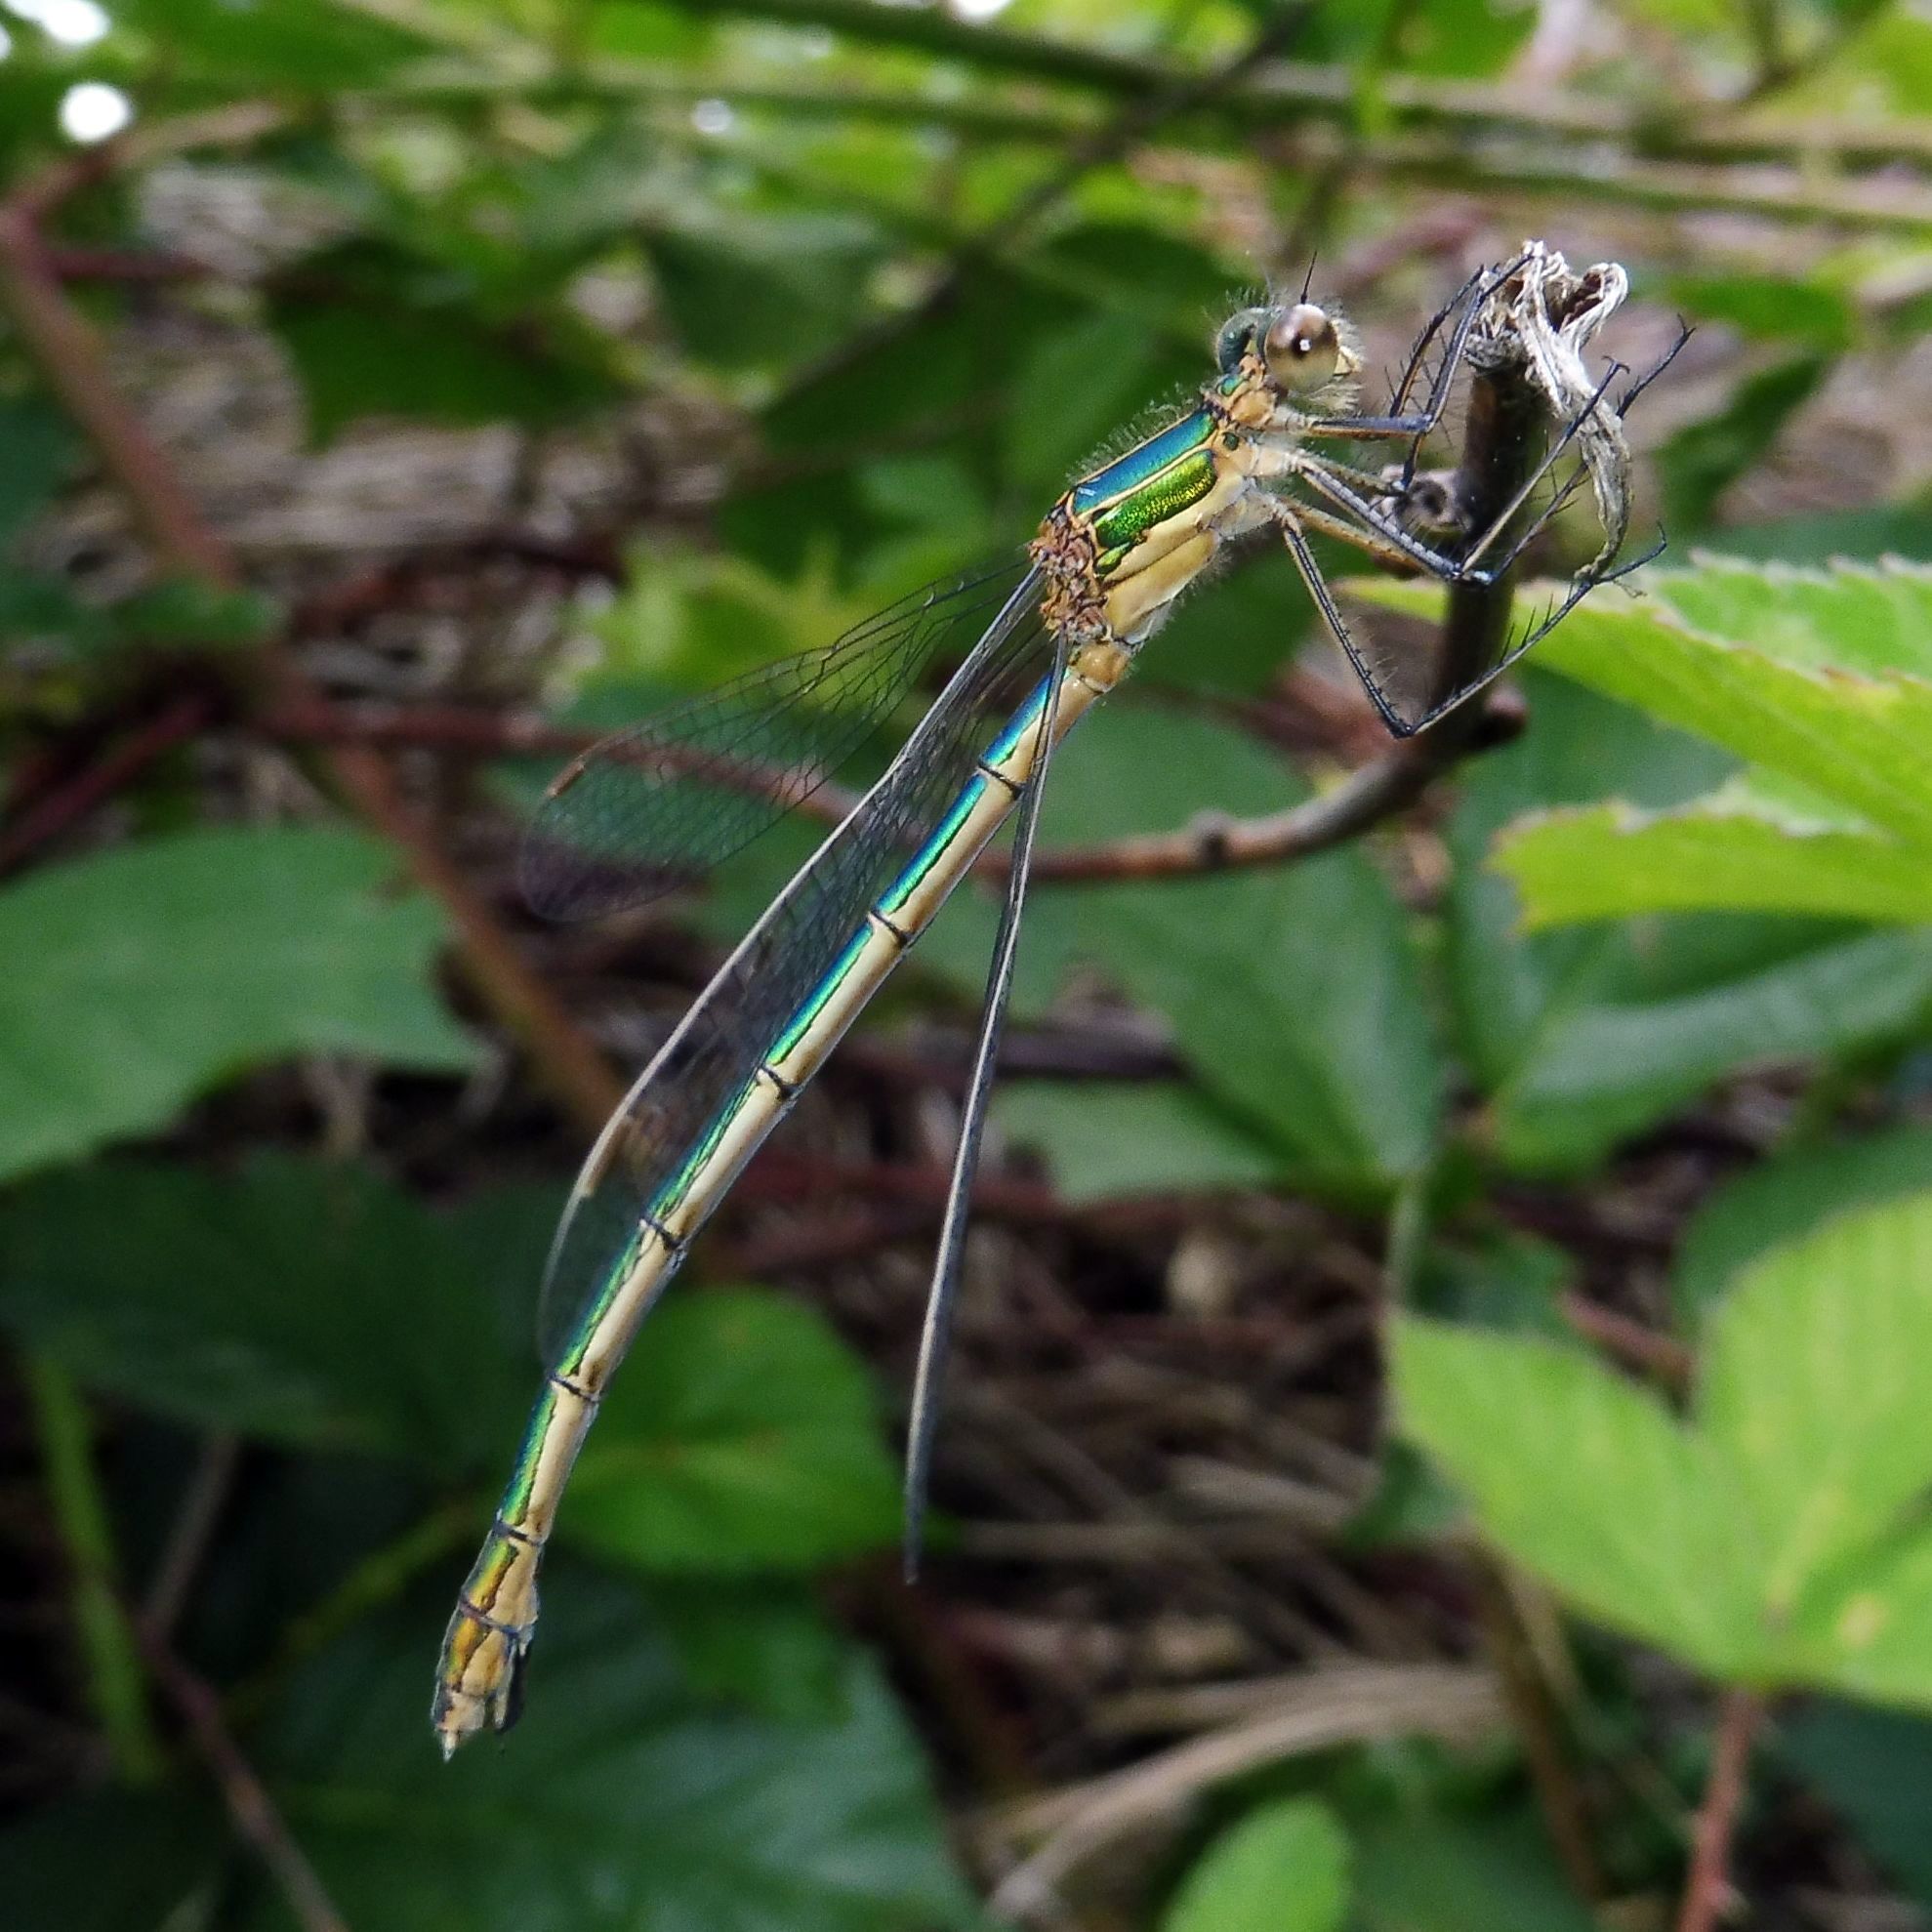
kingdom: Animalia
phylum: Arthropoda
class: Insecta
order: Odonata
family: Lestidae
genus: Lestes
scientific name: Lestes sponsa
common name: Common spreadwing
